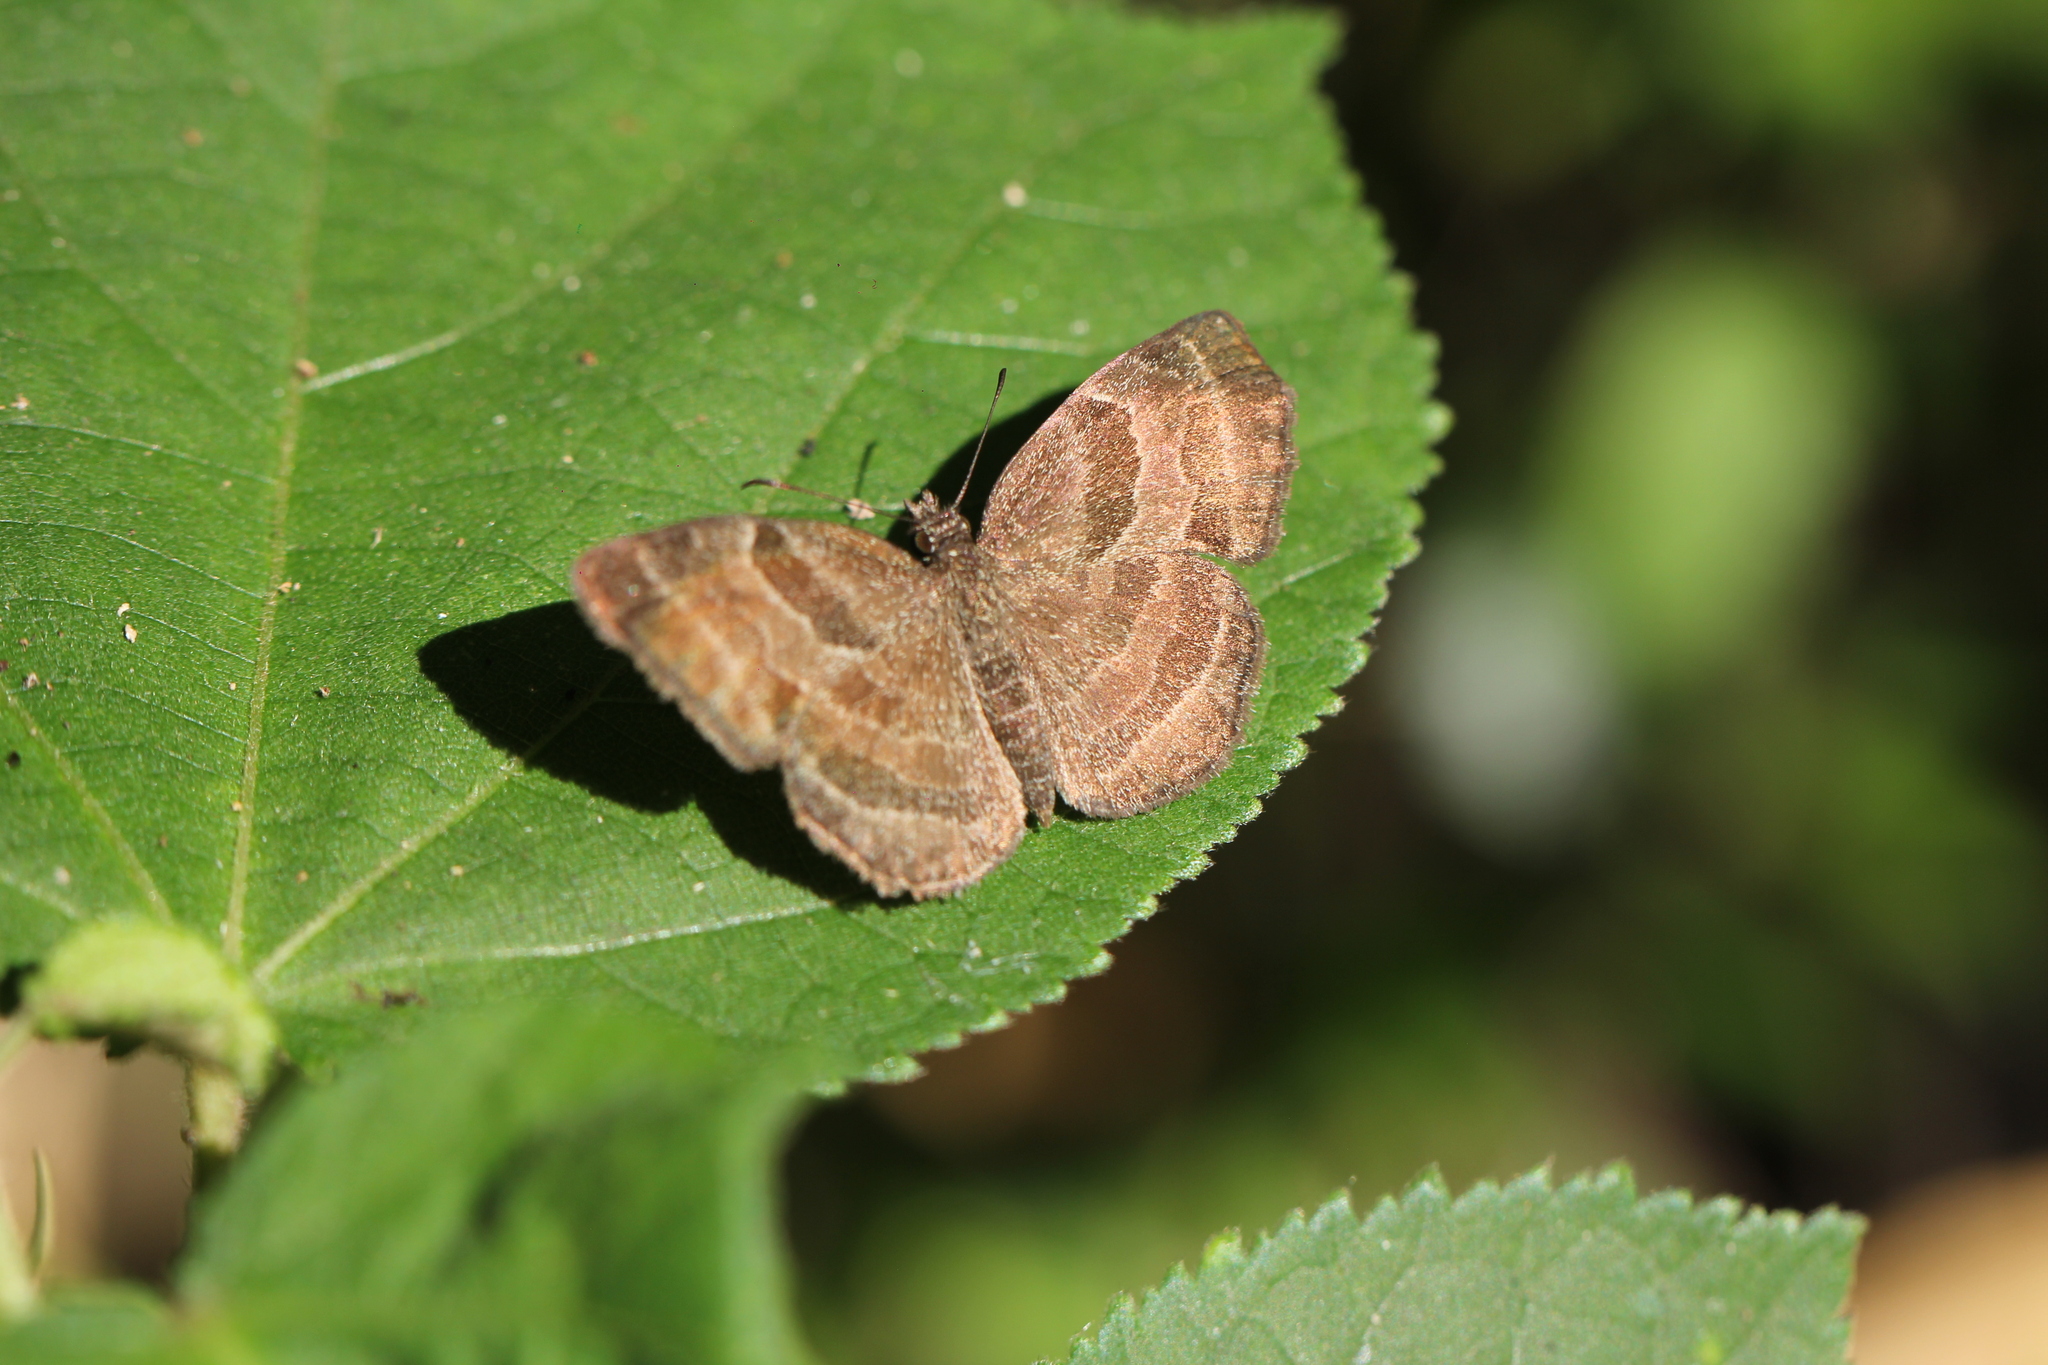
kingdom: Animalia
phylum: Arthropoda
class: Insecta
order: Lepidoptera
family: Hesperiidae
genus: Trina
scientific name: Trina geometrina
